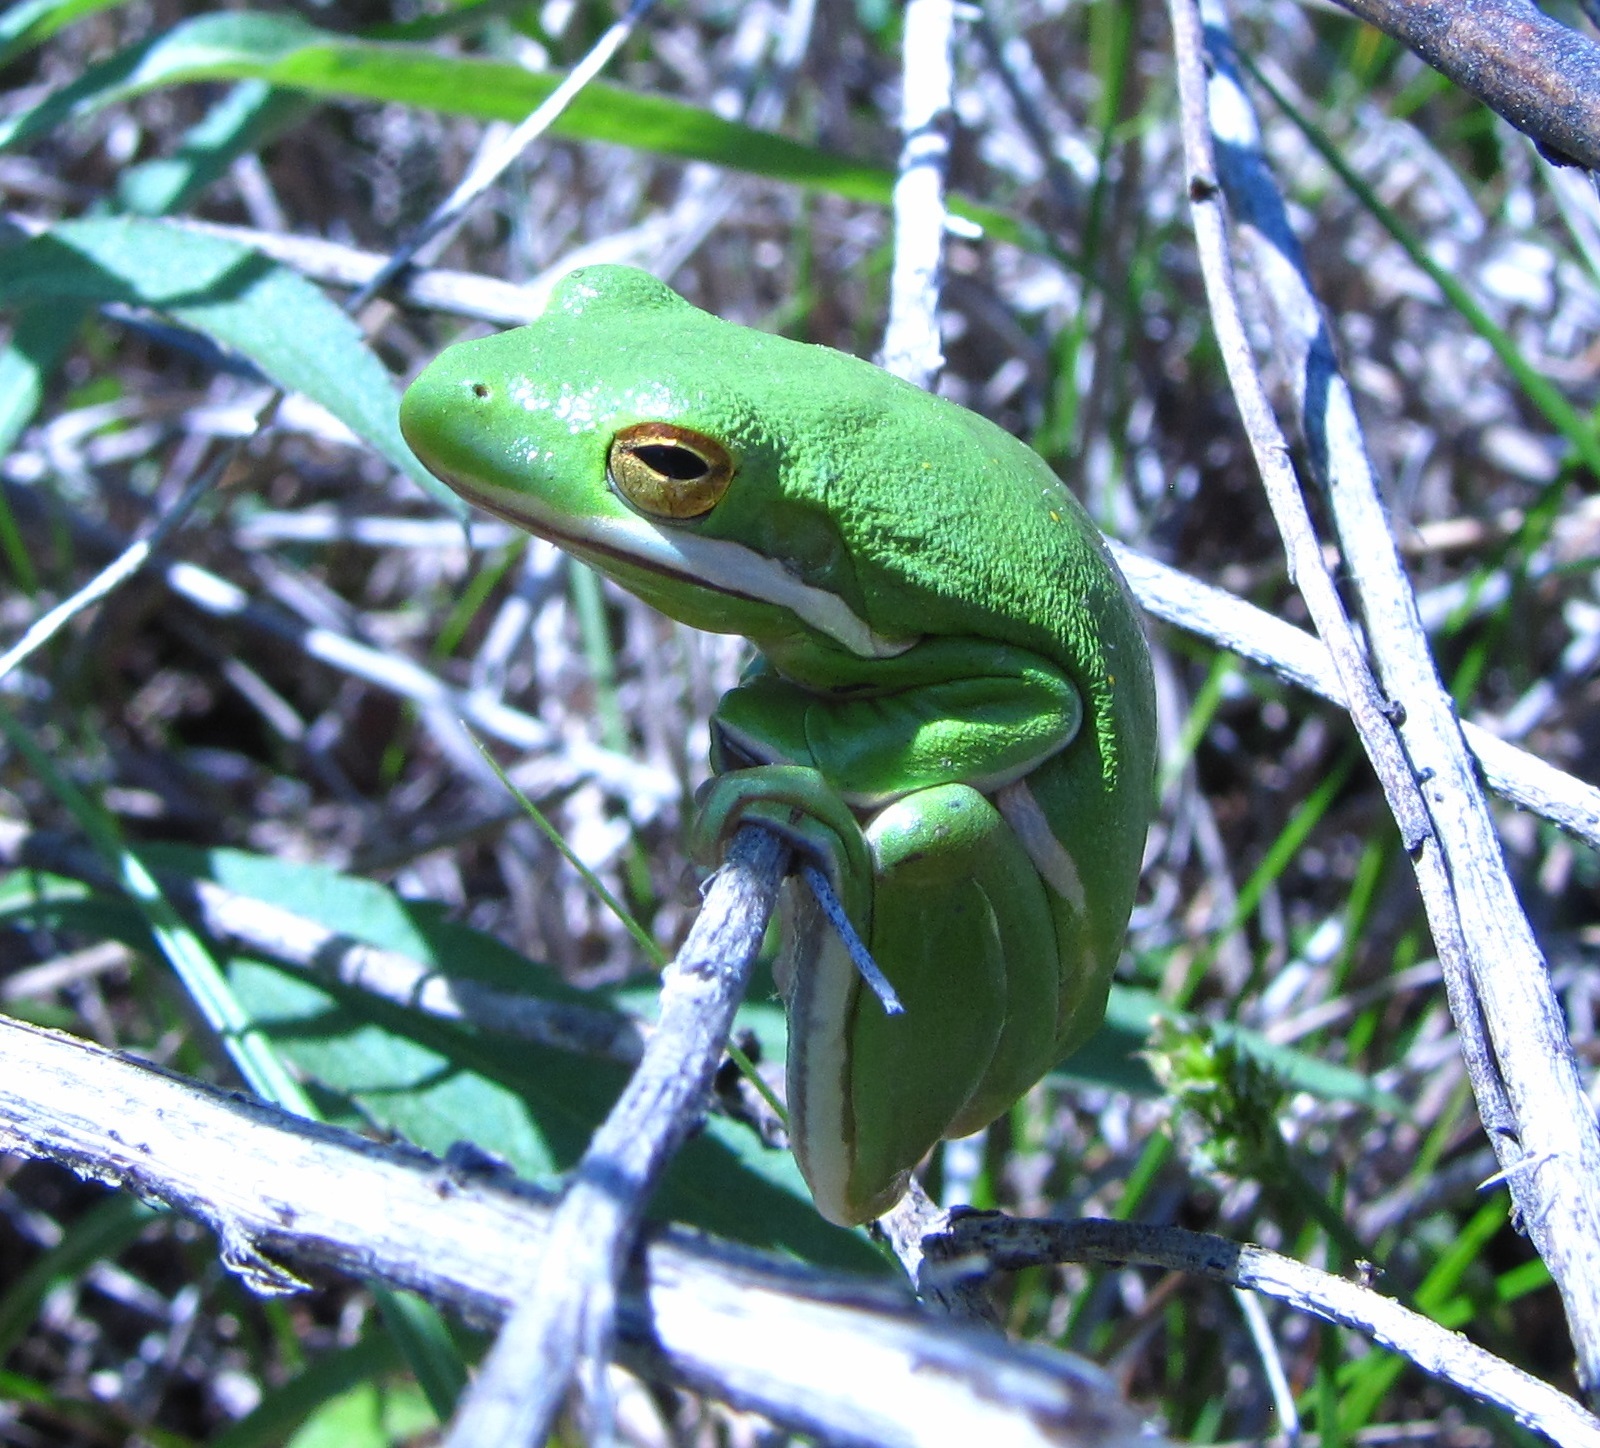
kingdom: Animalia
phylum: Chordata
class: Amphibia
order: Anura
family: Hylidae
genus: Dryophytes
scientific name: Dryophytes cinereus
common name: Green treefrog
